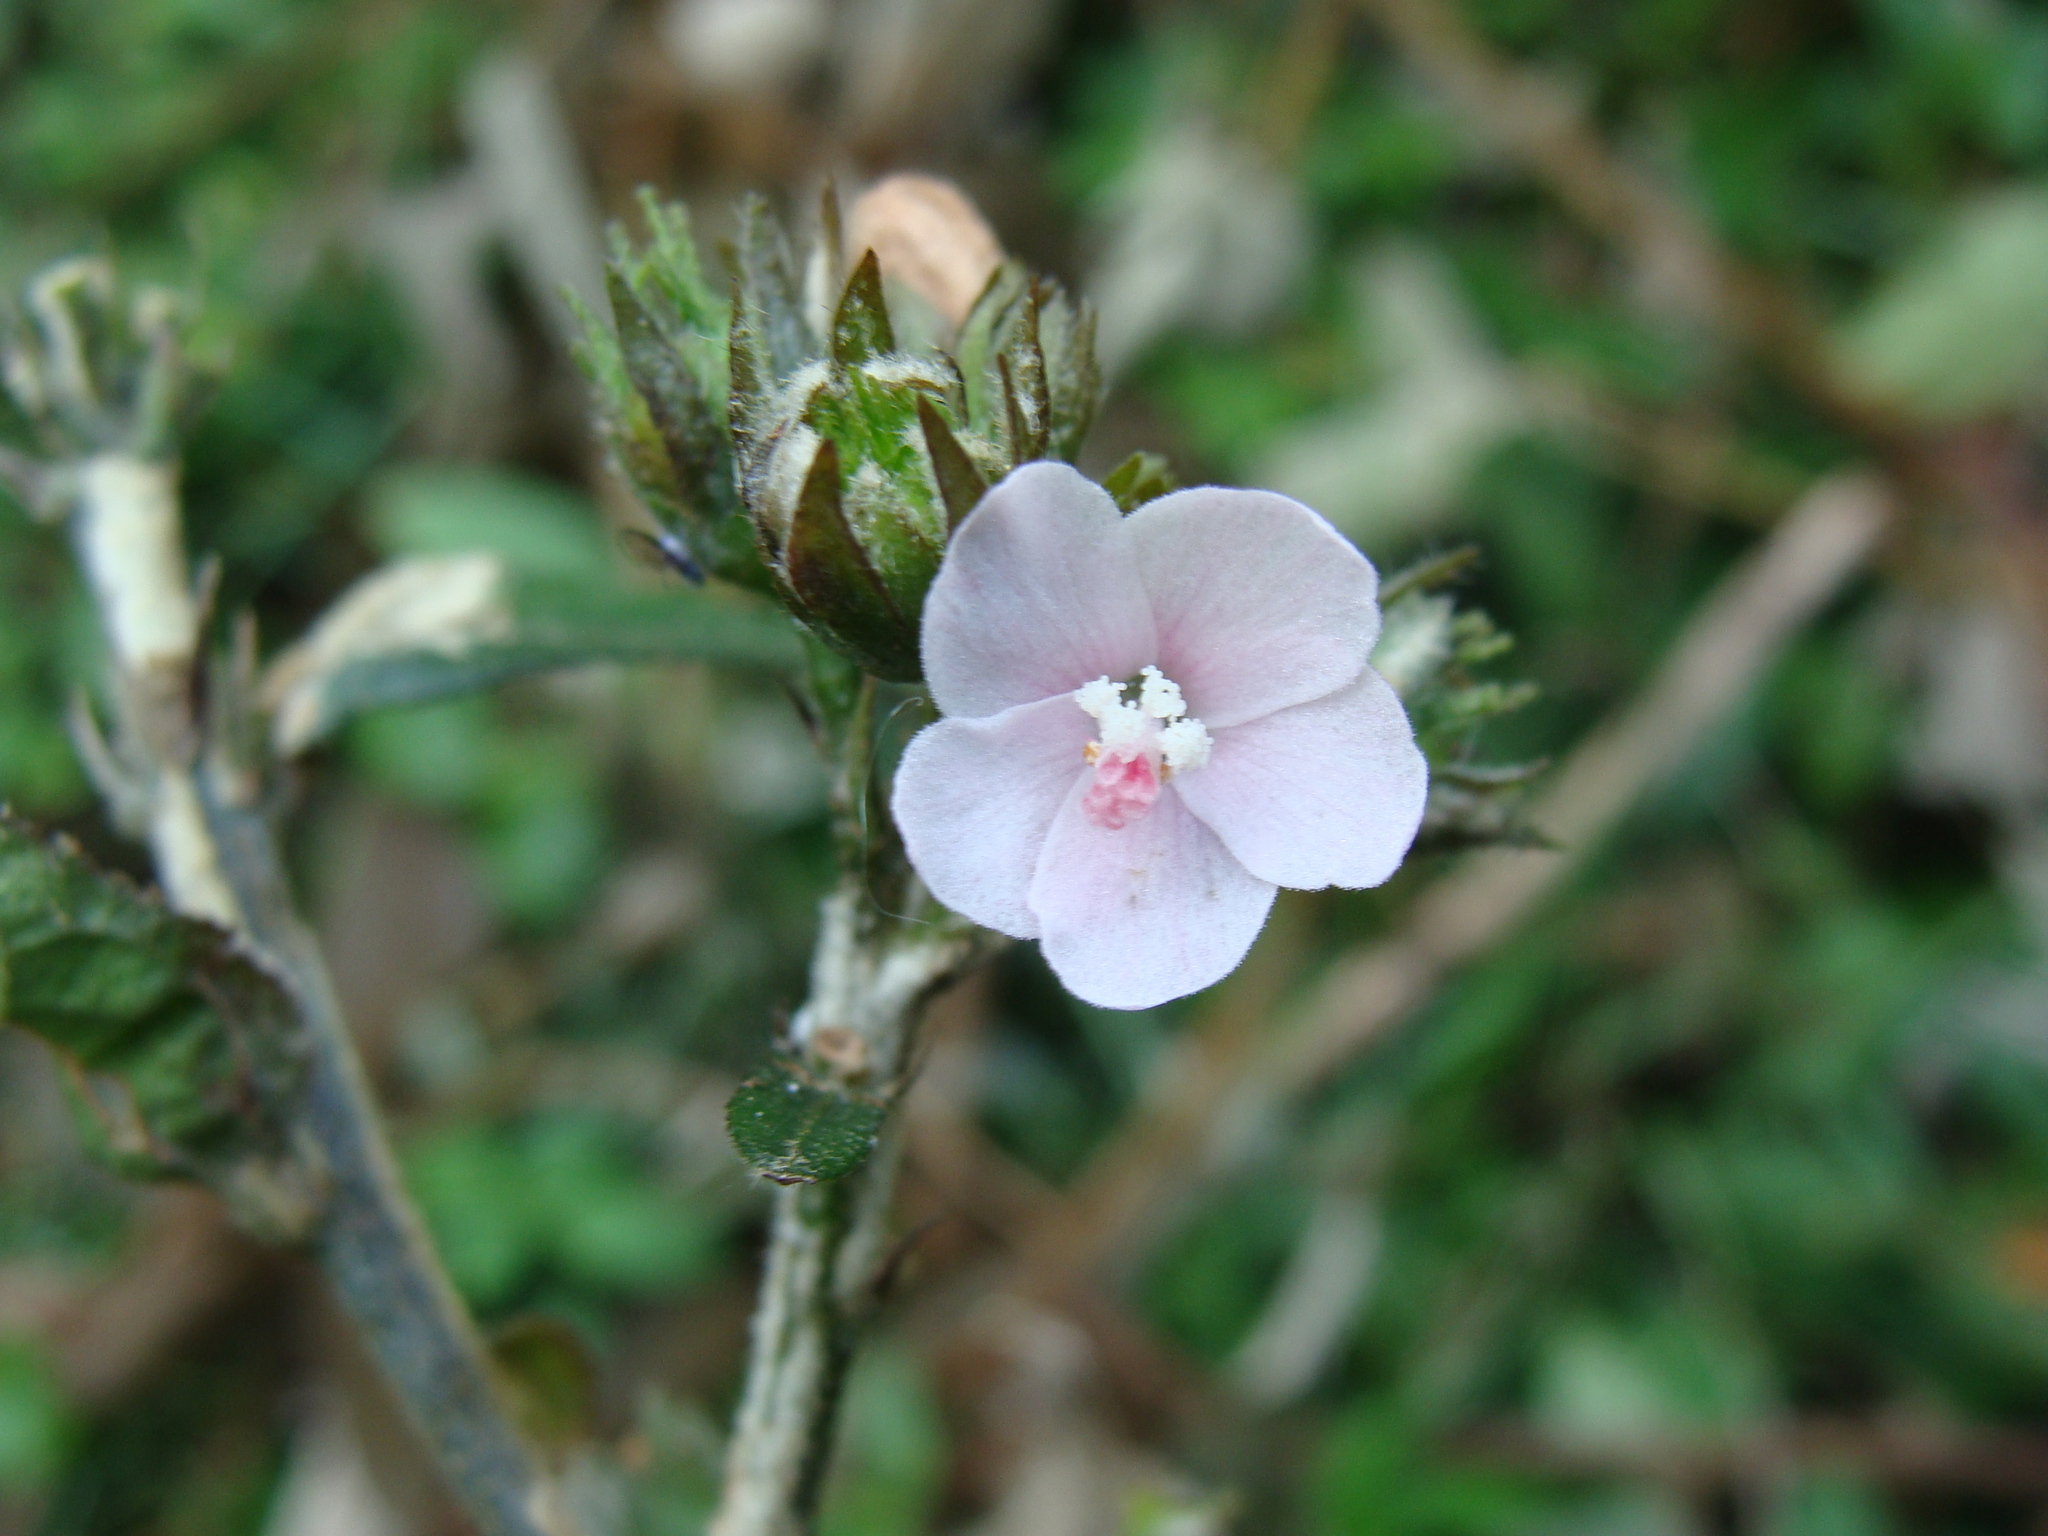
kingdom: Plantae
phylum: Tracheophyta
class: Magnoliopsida
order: Malvales
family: Malvaceae
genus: Pavonia
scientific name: Pavonia schiedeana
